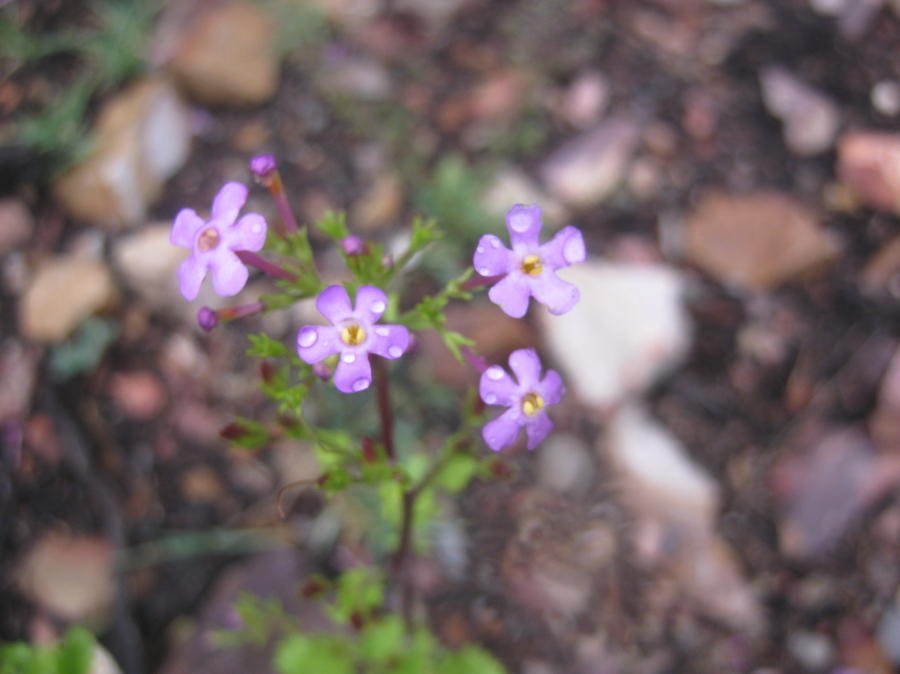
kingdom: Plantae
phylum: Tracheophyta
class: Magnoliopsida
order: Lamiales
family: Scrophulariaceae
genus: Sutera
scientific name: Sutera foetida
